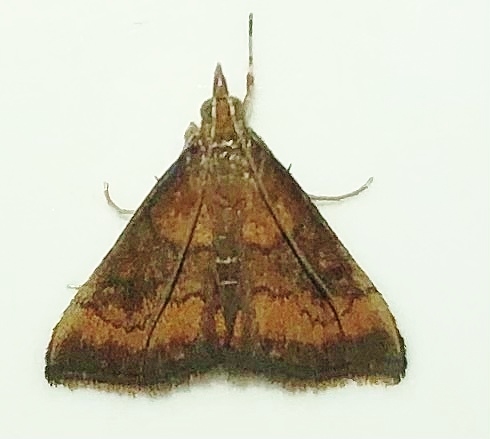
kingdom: Animalia
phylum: Arthropoda
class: Insecta
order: Lepidoptera
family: Crambidae
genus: Pyrausta
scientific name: Pyrausta rubricalis
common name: Variable reddish pyrausta
